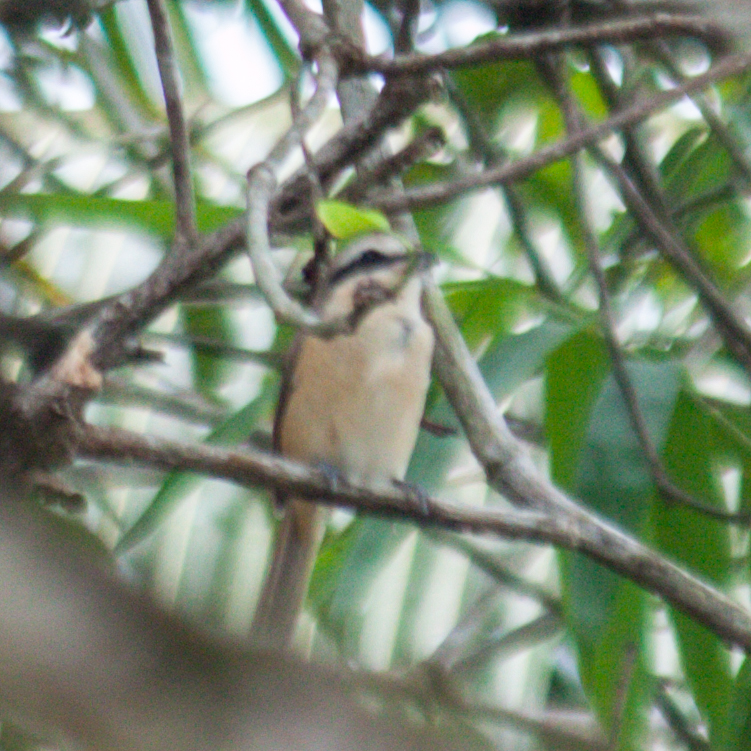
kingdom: Animalia
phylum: Chordata
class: Aves
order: Passeriformes
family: Laniidae
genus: Lanius
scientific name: Lanius cristatus
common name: Brown shrike
